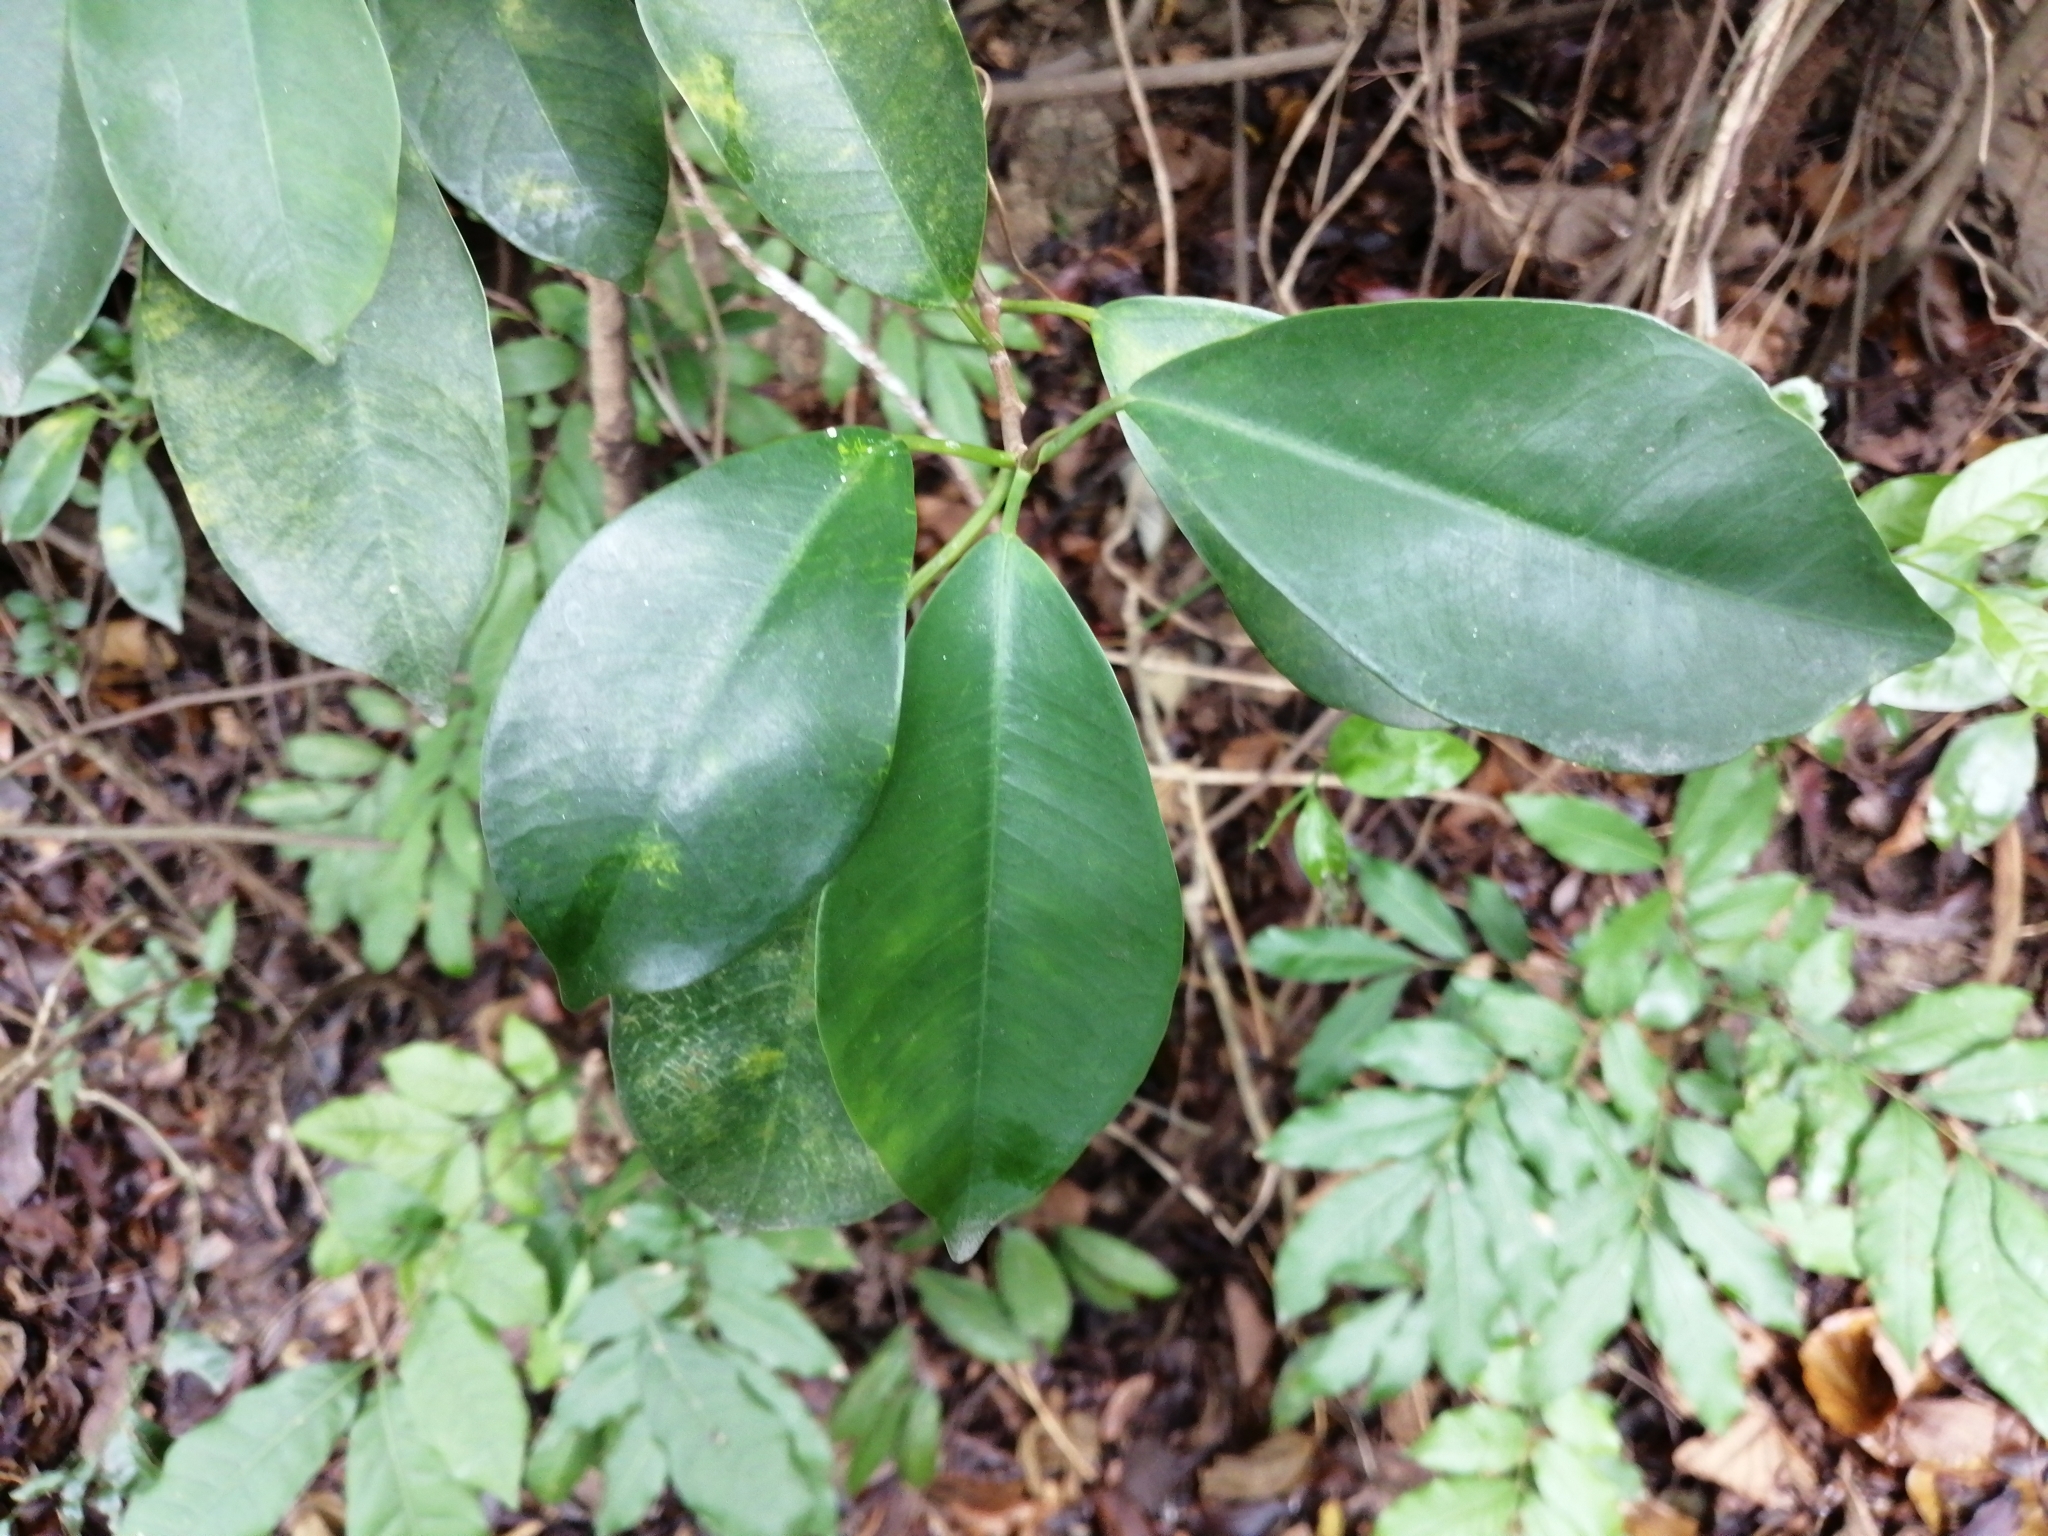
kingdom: Plantae
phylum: Tracheophyta
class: Magnoliopsida
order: Rosales
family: Moraceae
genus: Ficus
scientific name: Ficus microcarpa
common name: Chinese banyan
